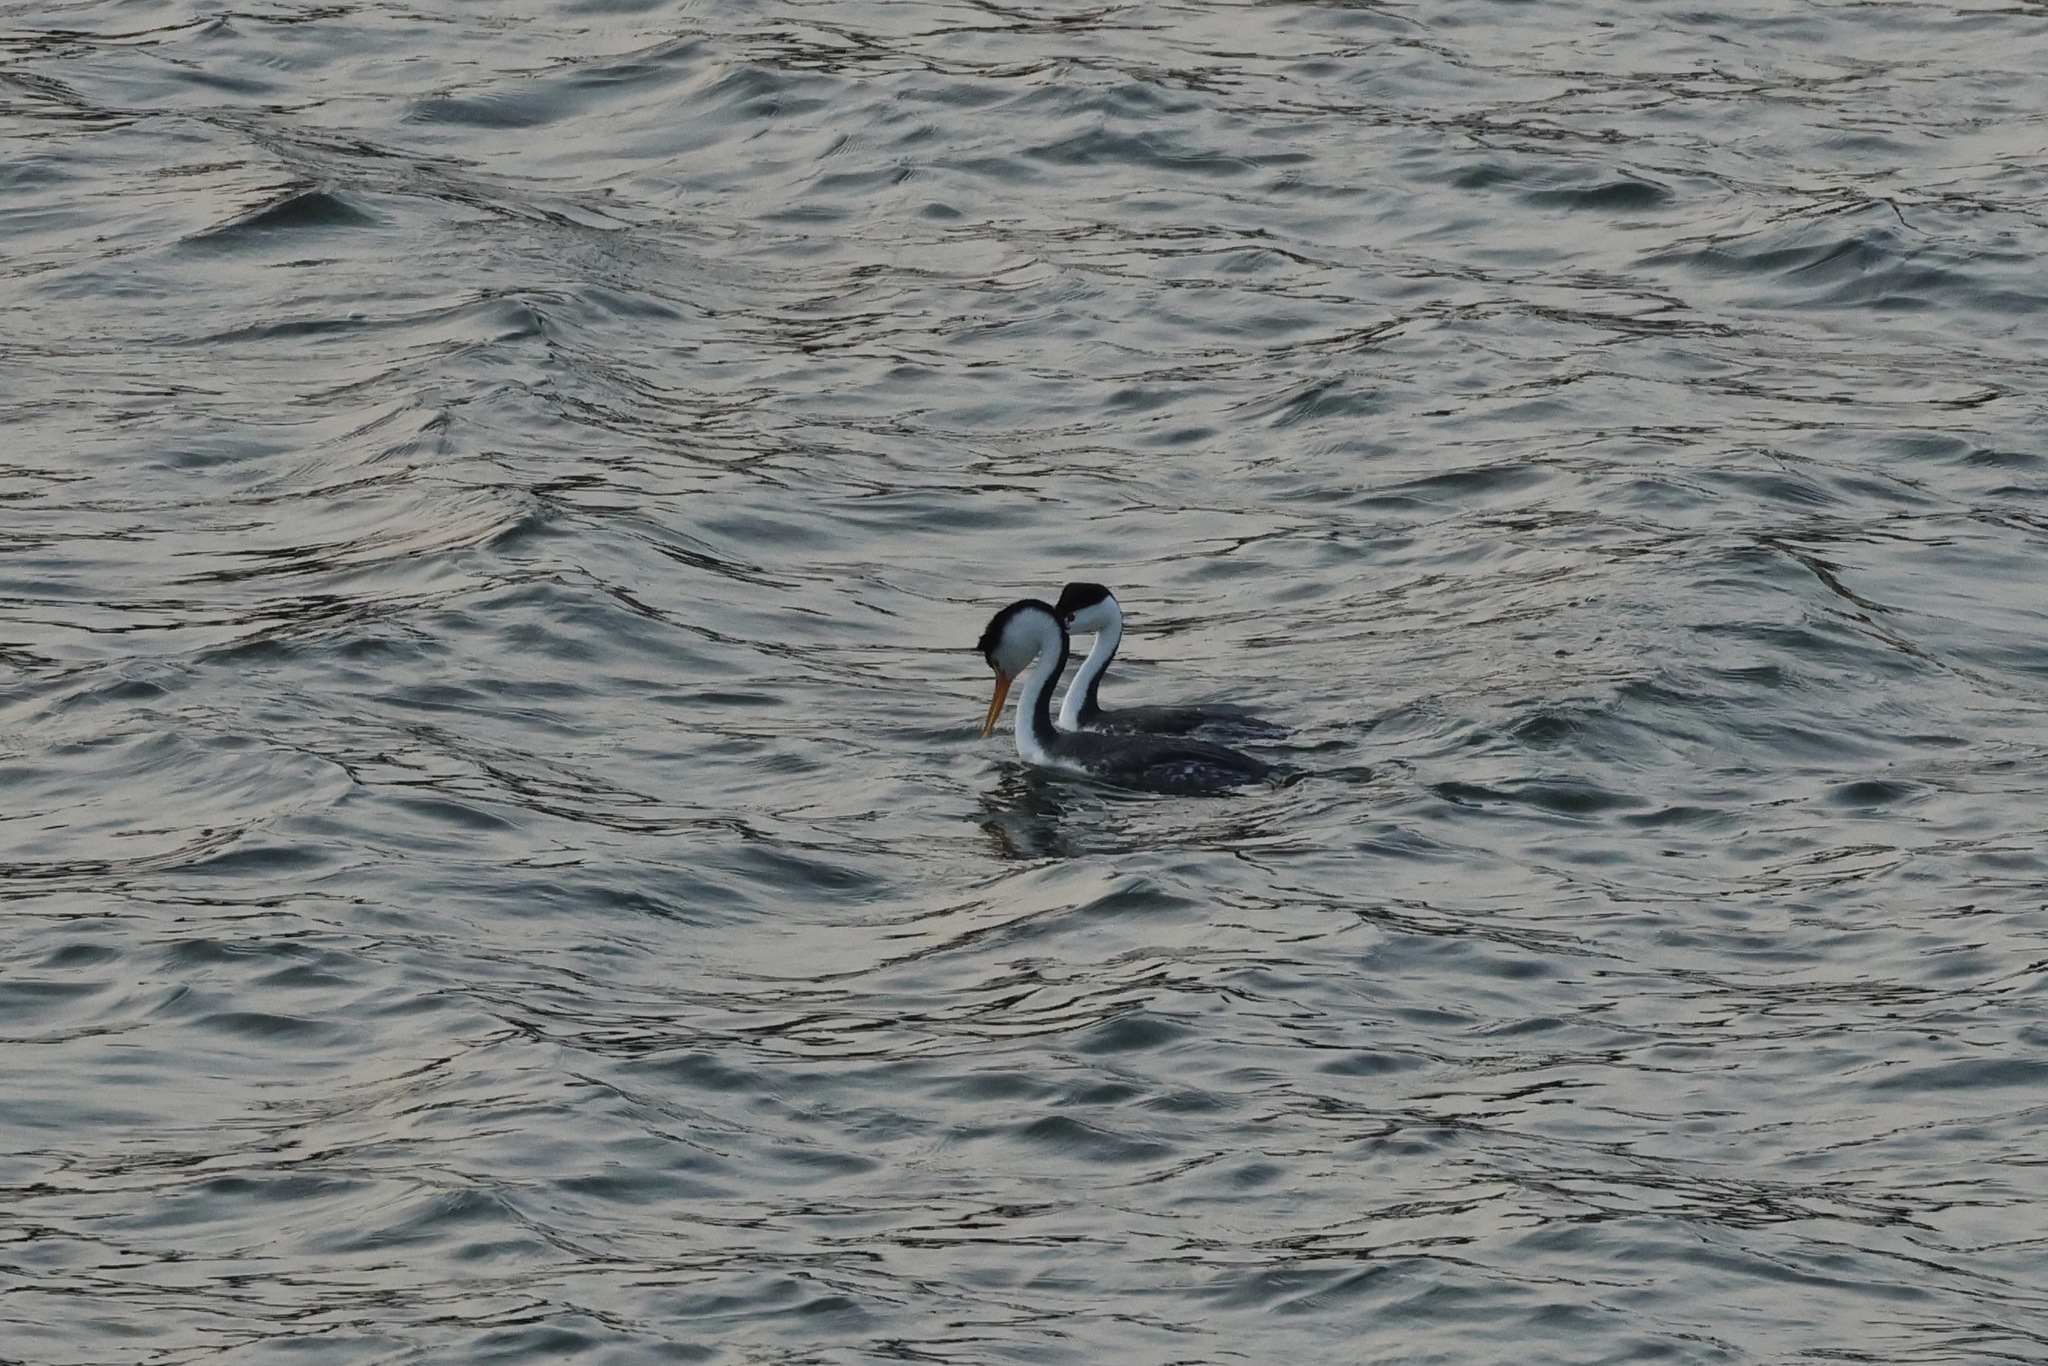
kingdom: Animalia
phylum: Chordata
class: Aves
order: Podicipediformes
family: Podicipedidae
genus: Aechmophorus
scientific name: Aechmophorus clarkii
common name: Clark's grebe
